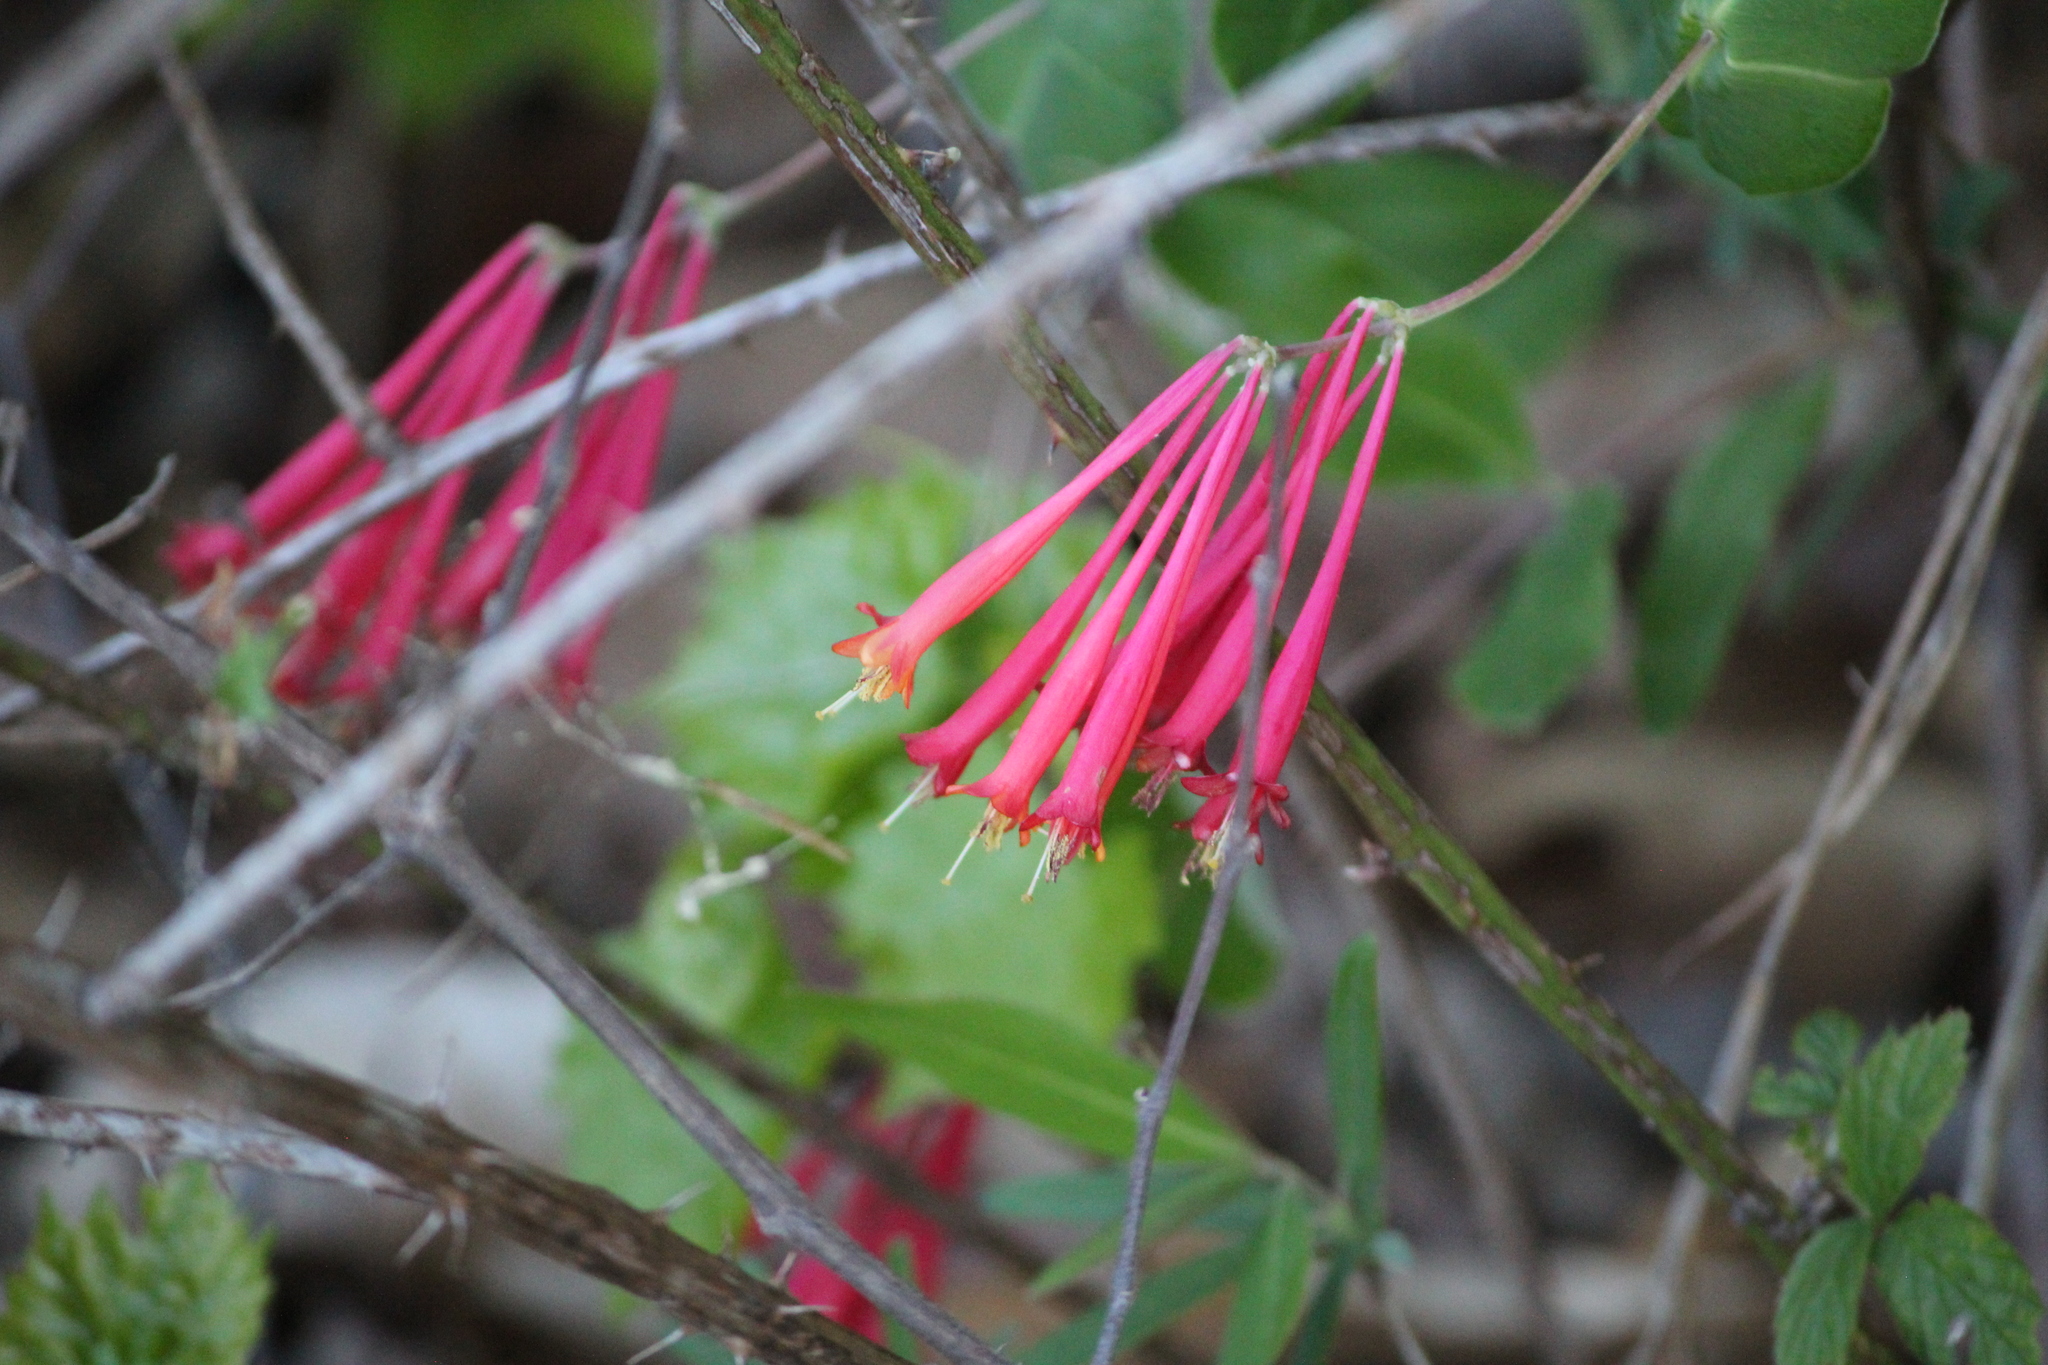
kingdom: Plantae
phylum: Tracheophyta
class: Magnoliopsida
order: Dipsacales
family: Caprifoliaceae
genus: Lonicera
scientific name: Lonicera sempervirens
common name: Coral honeysuckle
